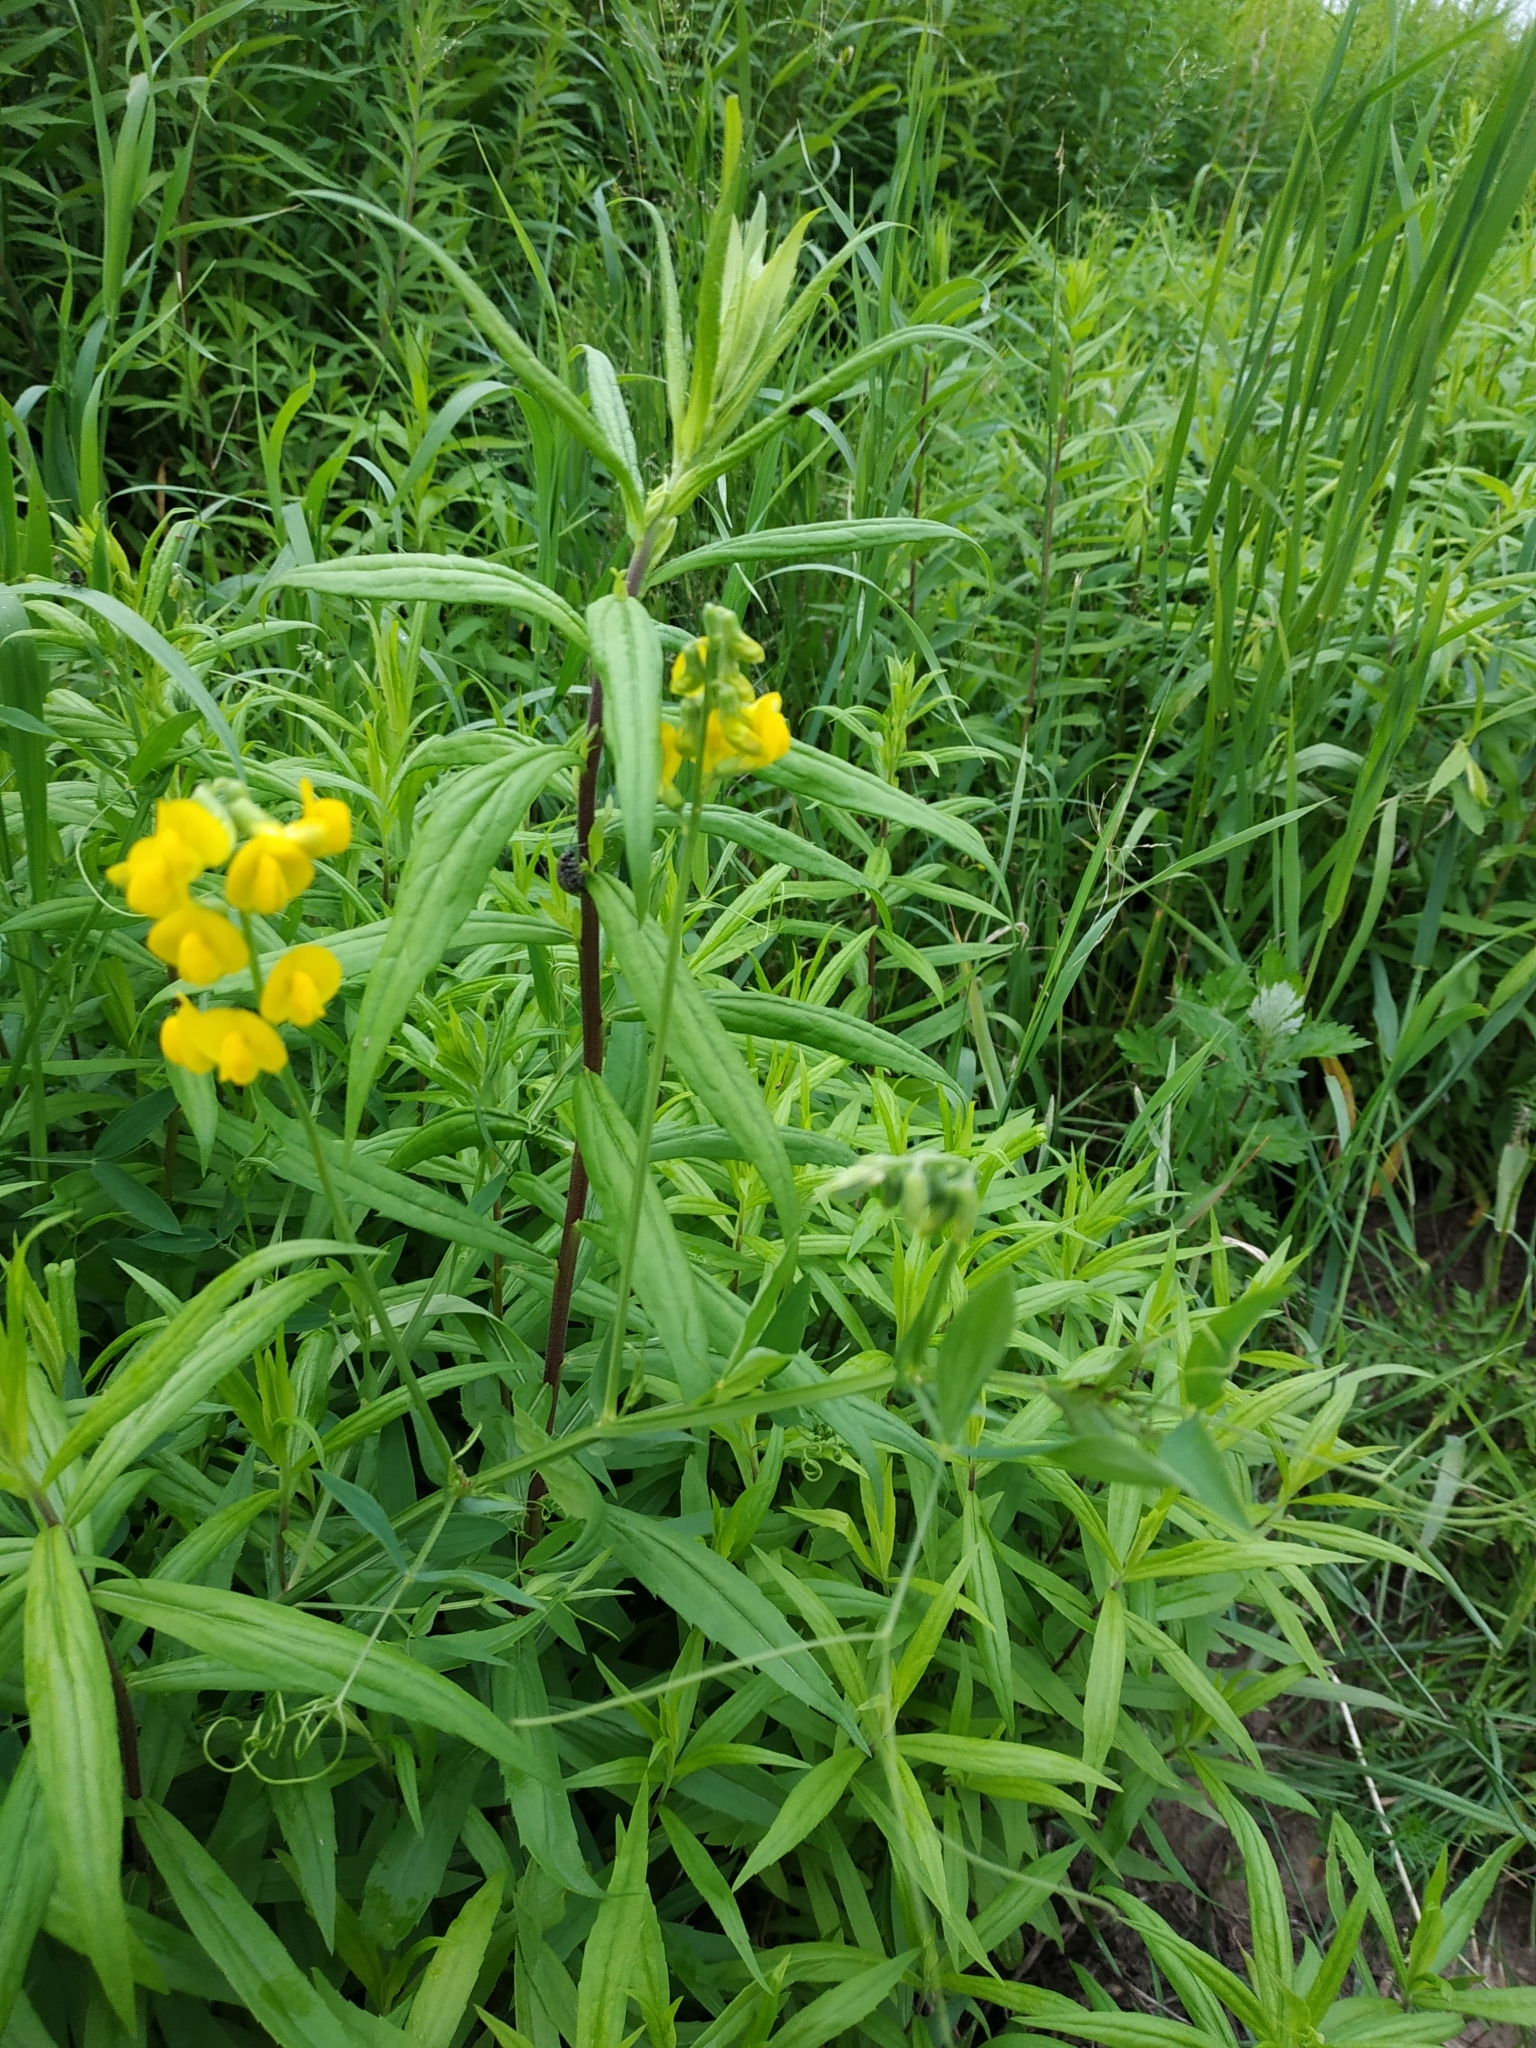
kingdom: Plantae
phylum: Tracheophyta
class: Magnoliopsida
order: Fabales
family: Fabaceae
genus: Lathyrus
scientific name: Lathyrus pratensis
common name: Meadow vetchling
